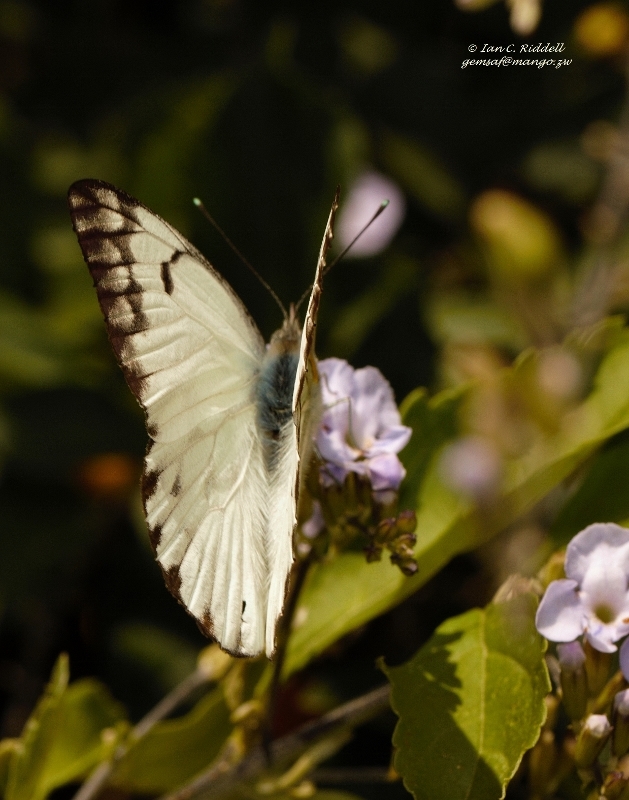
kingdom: Animalia
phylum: Arthropoda
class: Insecta
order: Lepidoptera
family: Pieridae
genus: Belenois
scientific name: Belenois gidica
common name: Pointed caper white
